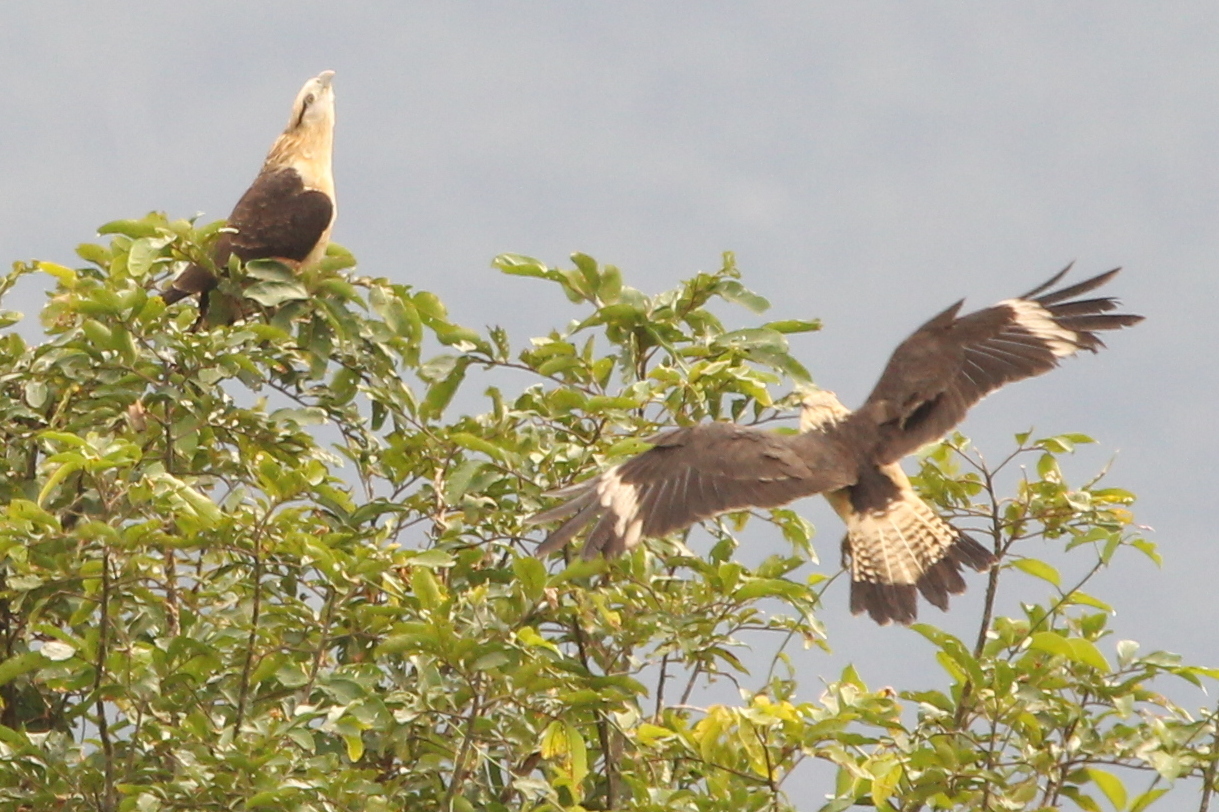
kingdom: Animalia
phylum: Chordata
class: Aves
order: Falconiformes
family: Falconidae
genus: Daptrius
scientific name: Daptrius
